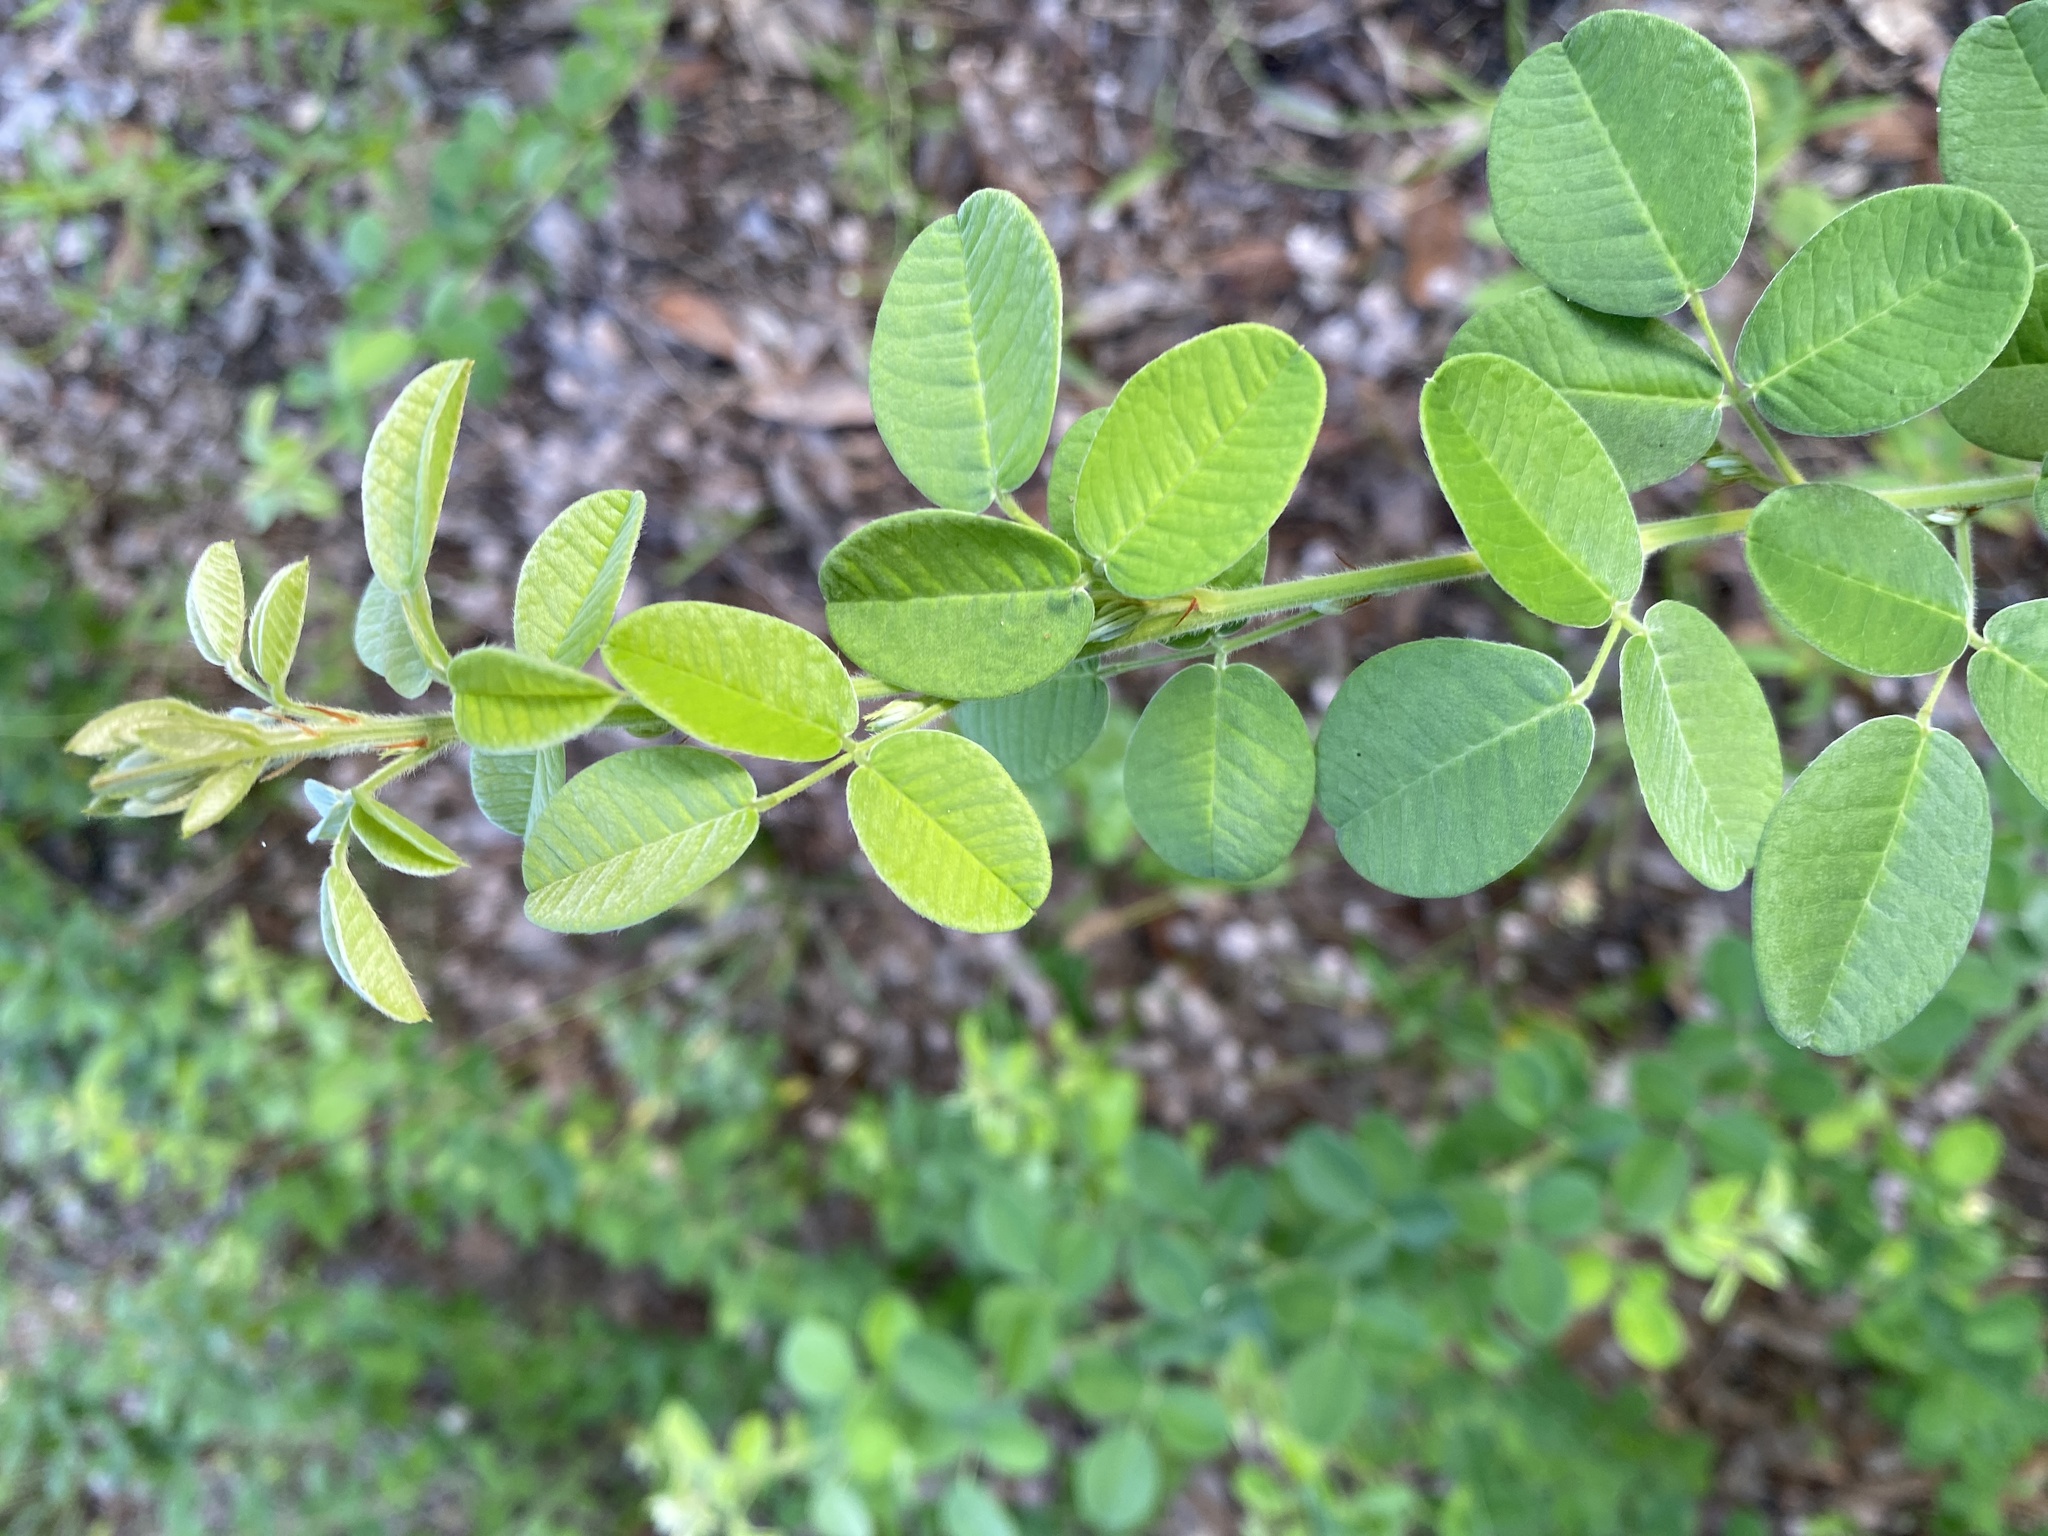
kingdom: Plantae
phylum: Tracheophyta
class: Magnoliopsida
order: Fabales
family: Fabaceae
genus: Lespedeza
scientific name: Lespedeza hirta
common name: Hairy lespedeza
